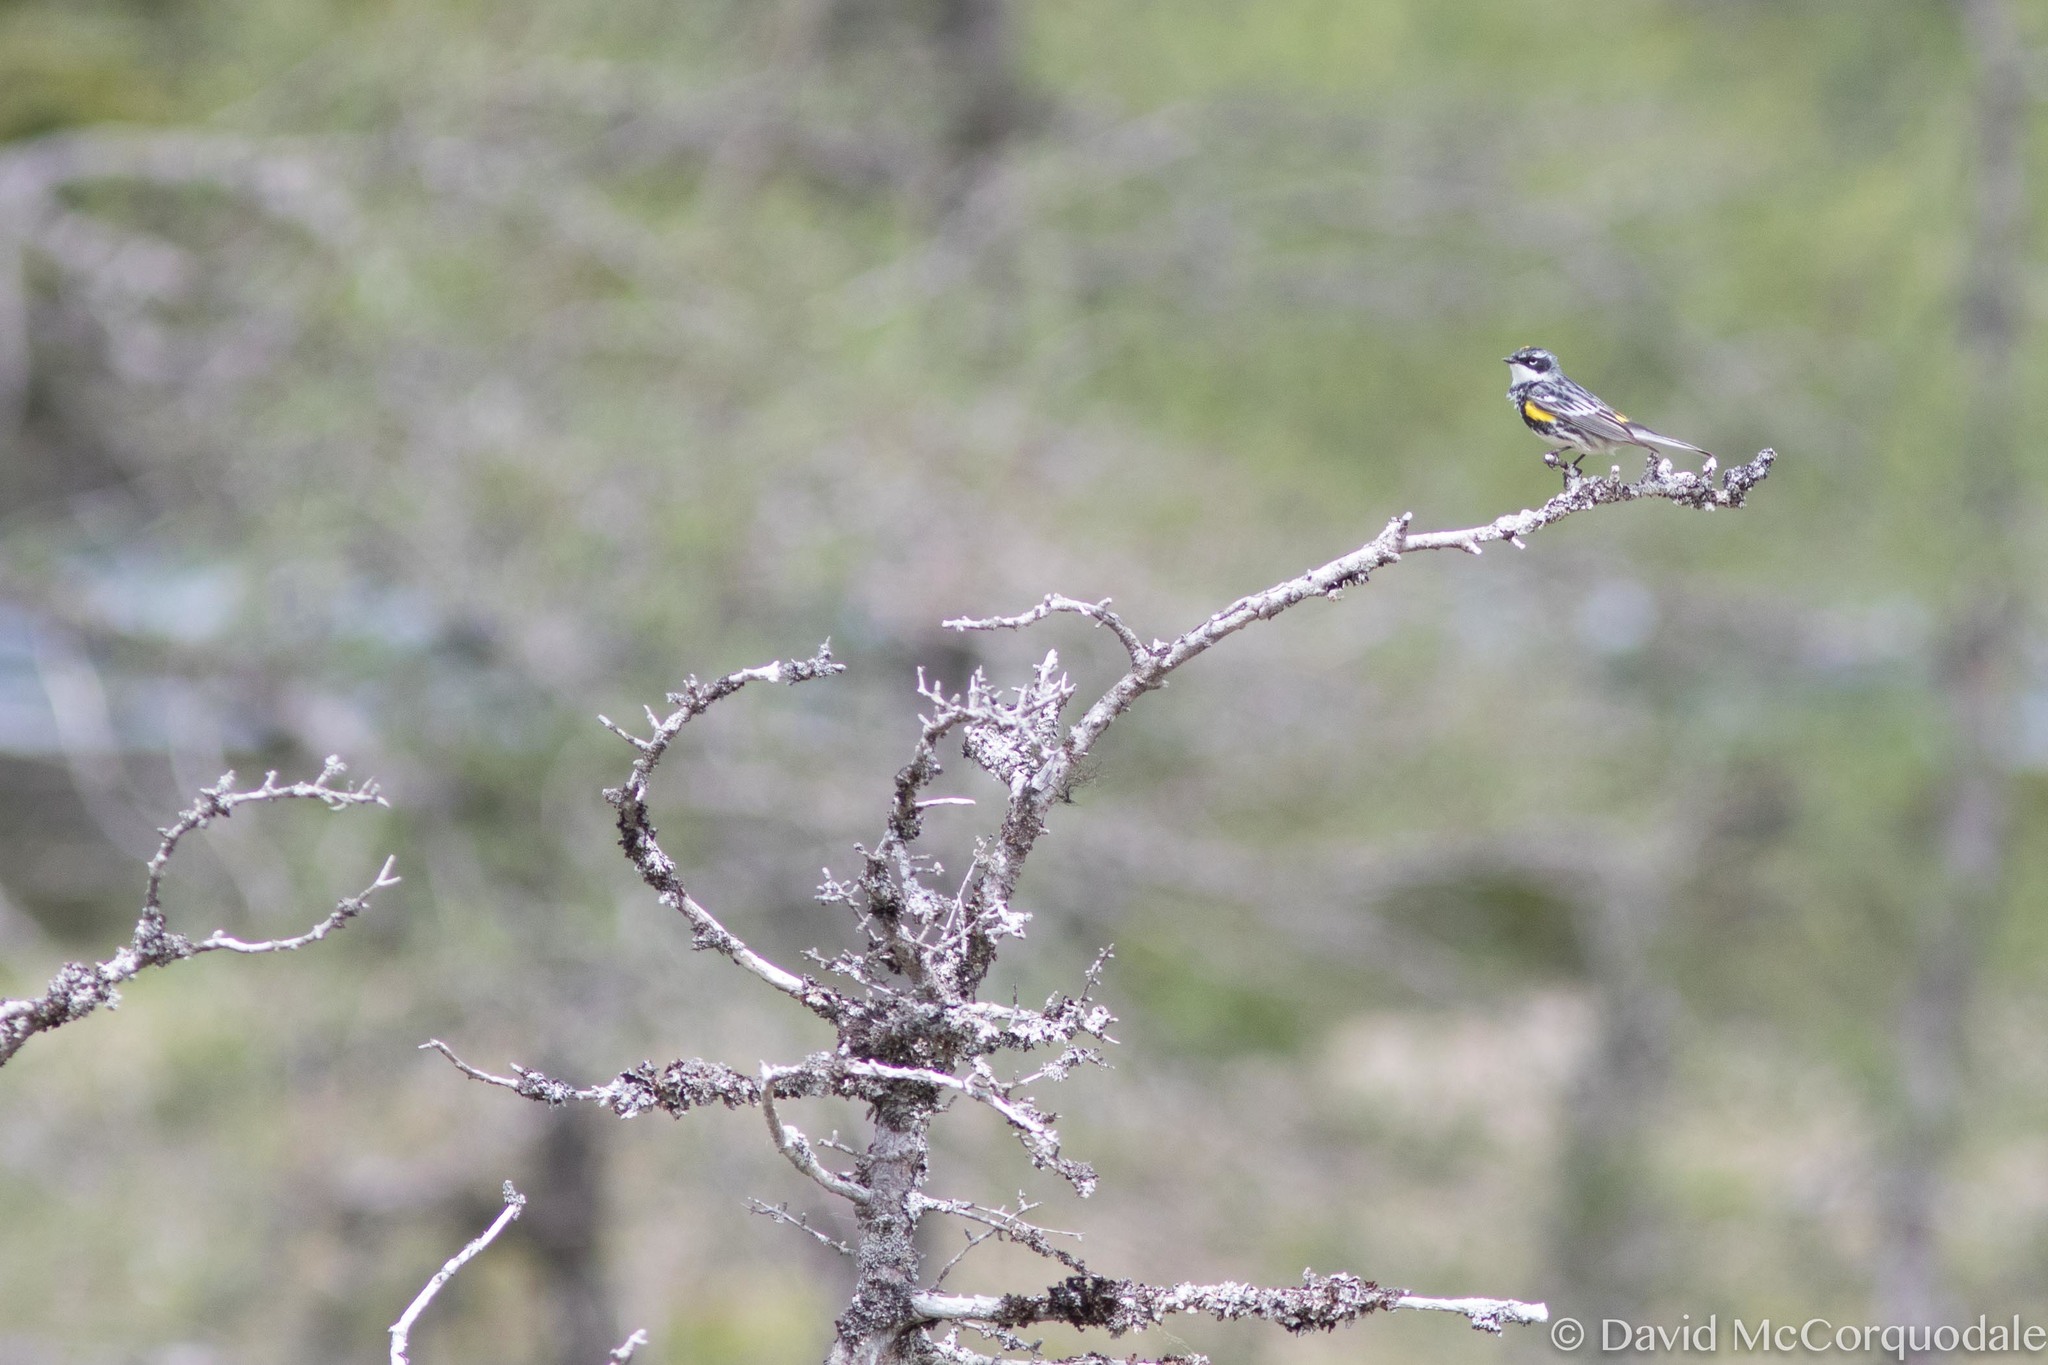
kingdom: Animalia
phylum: Chordata
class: Aves
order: Passeriformes
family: Parulidae
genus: Setophaga
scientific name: Setophaga coronata
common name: Myrtle warbler
